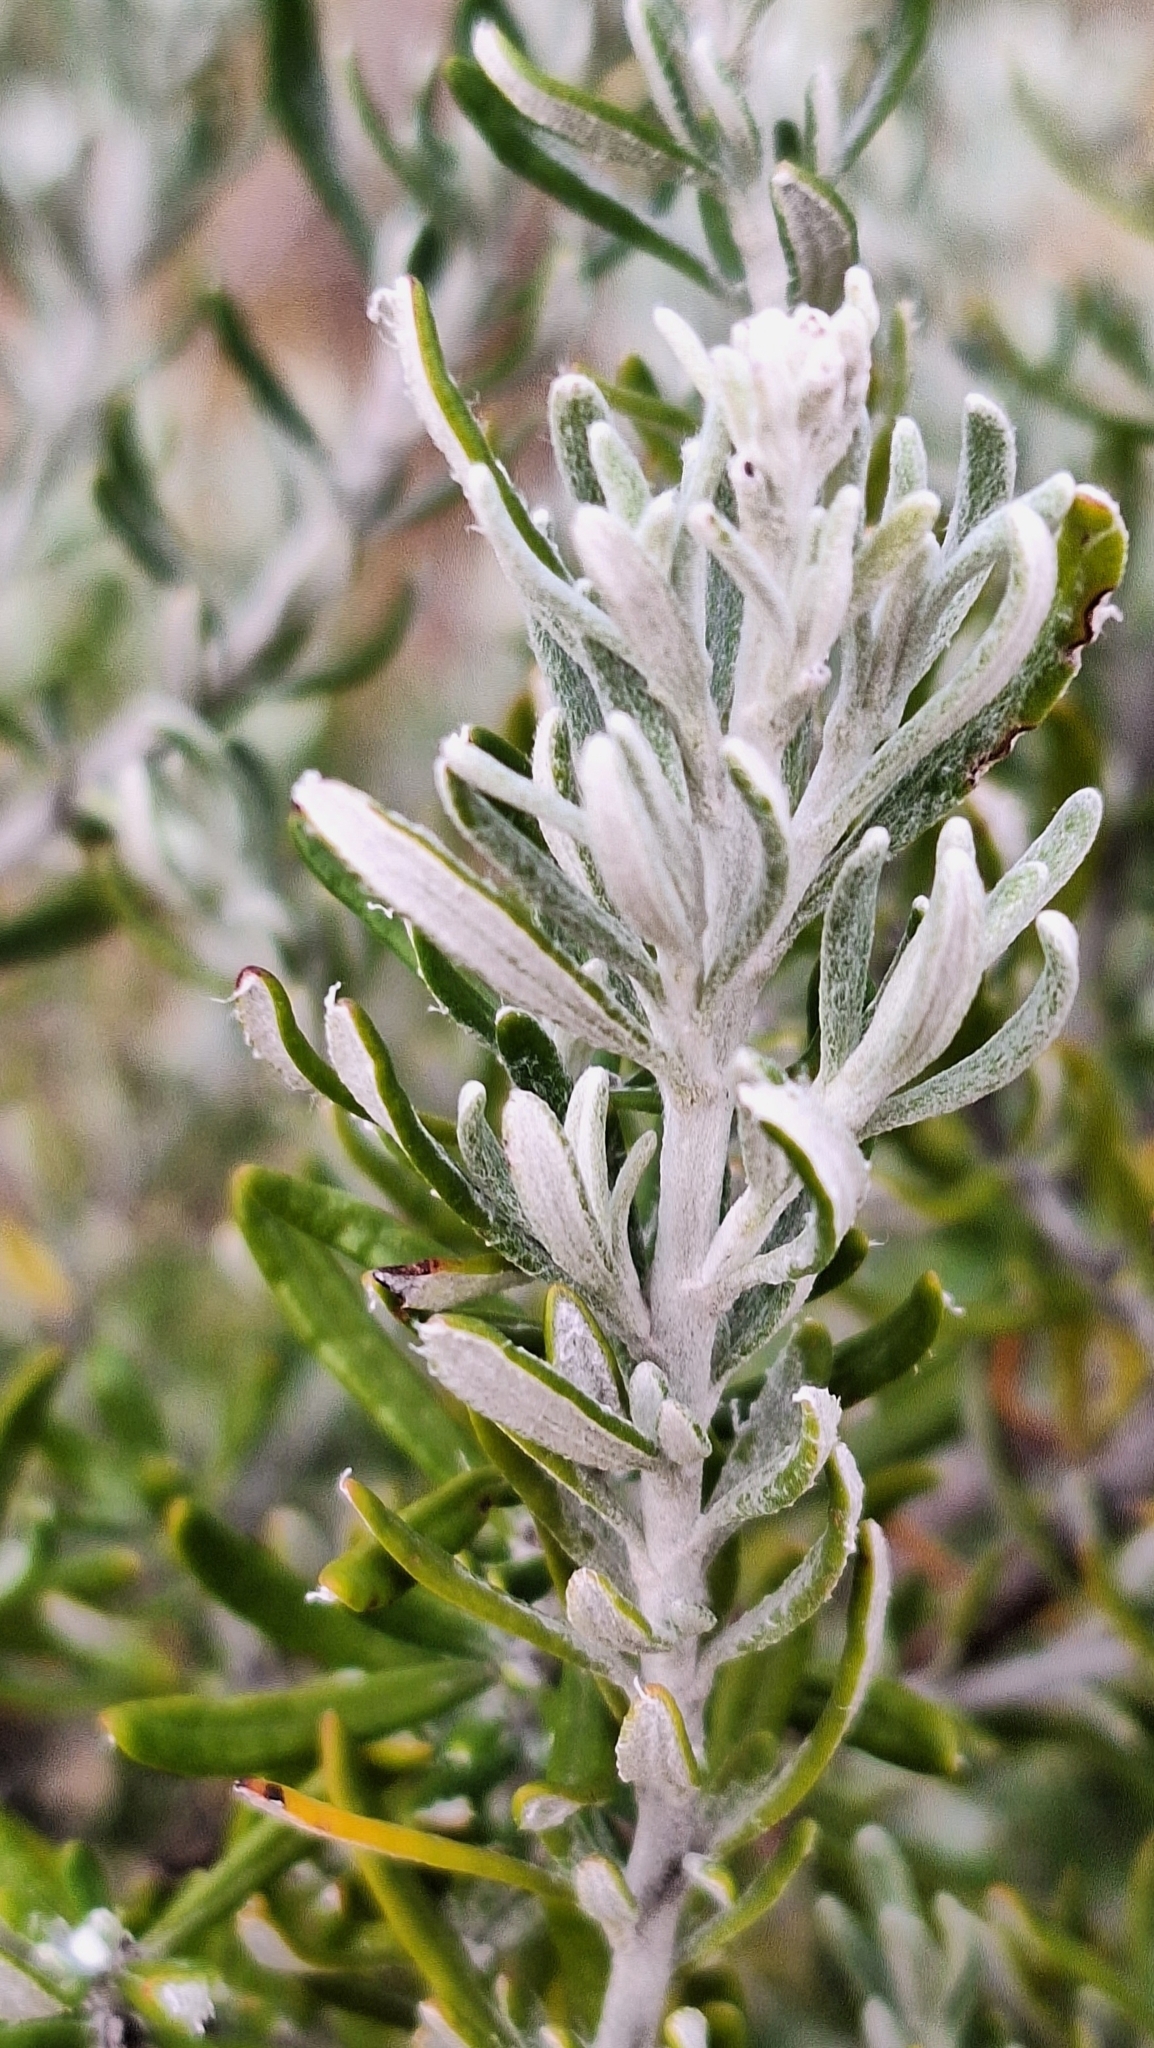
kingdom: Plantae
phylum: Tracheophyta
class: Magnoliopsida
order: Asterales
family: Asteraceae
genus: Olearia
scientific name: Olearia axillaris
